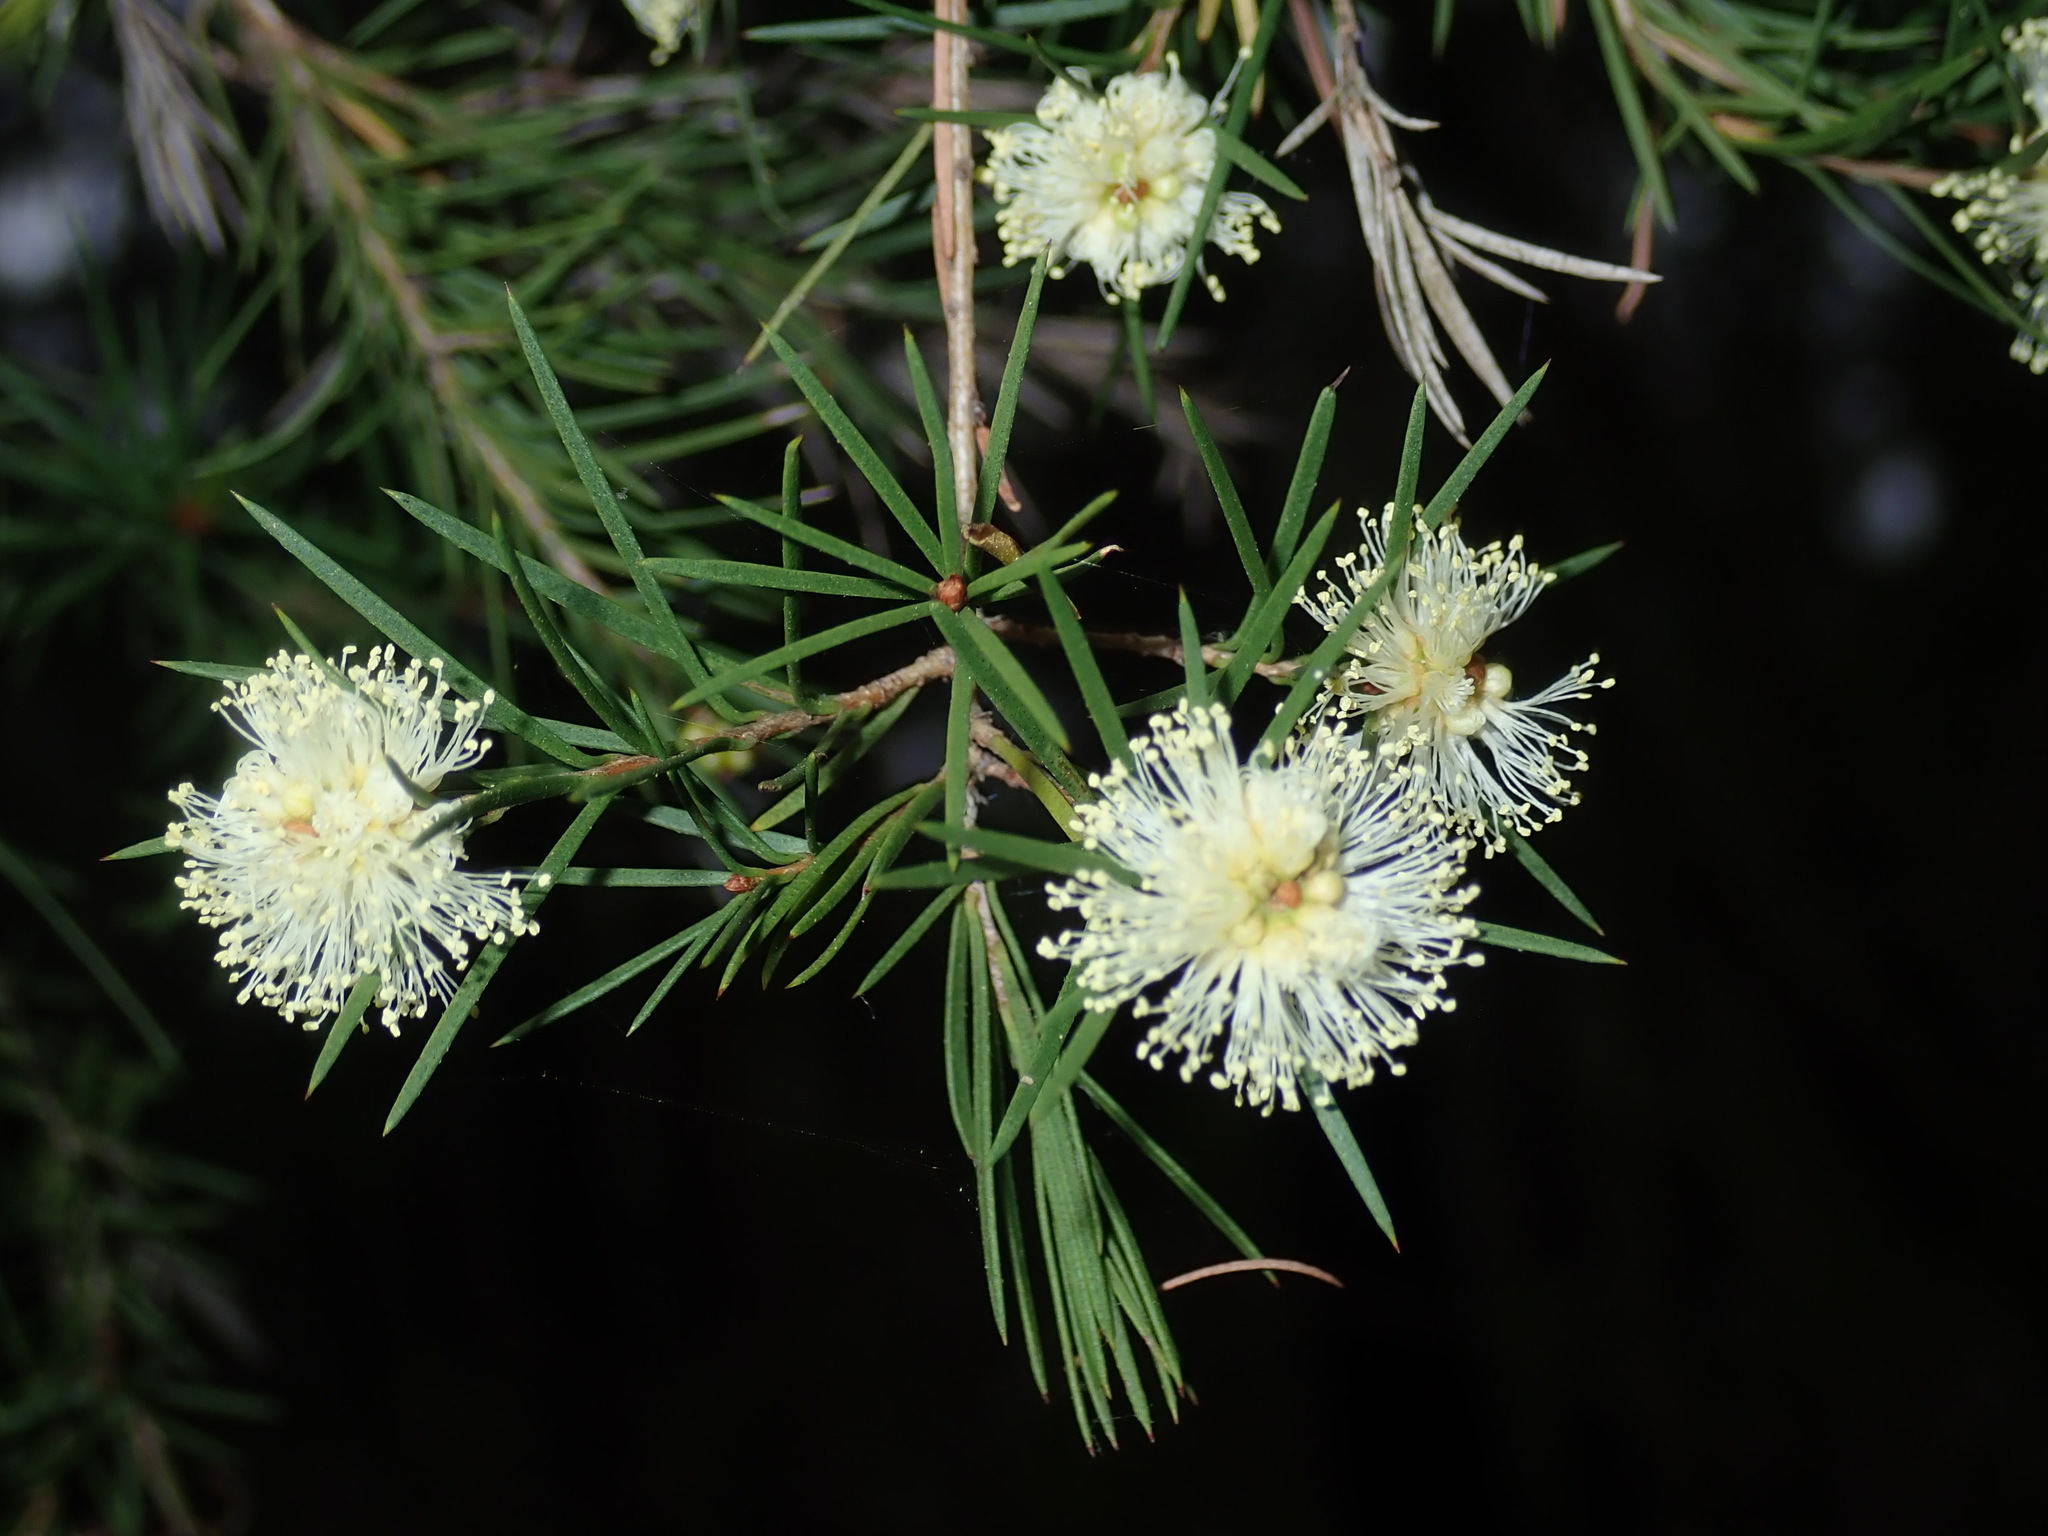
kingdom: Plantae
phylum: Tracheophyta
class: Magnoliopsida
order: Myrtales
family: Myrtaceae
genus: Melaleuca
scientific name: Melaleuca nodosa
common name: Prickly-leaf paperbark
